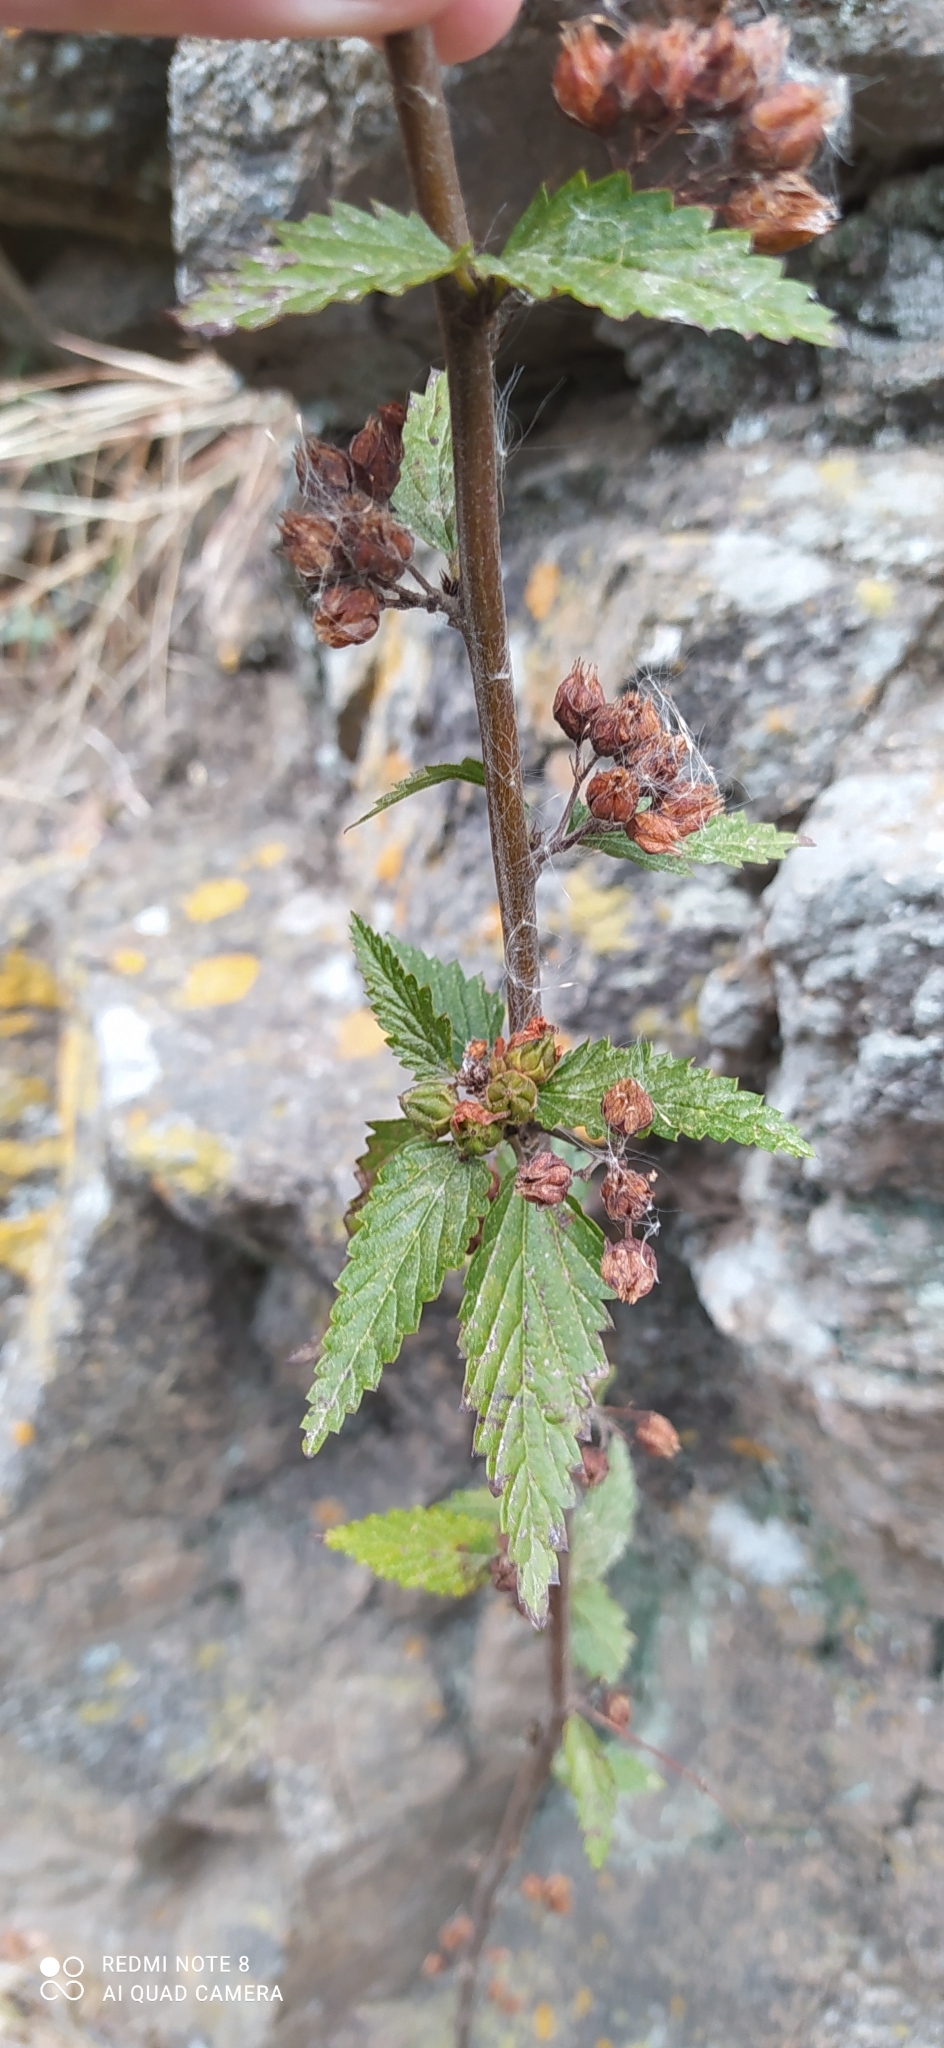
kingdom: Plantae
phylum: Tracheophyta
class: Magnoliopsida
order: Malvales
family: Malvaceae
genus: Melochia
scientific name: Melochia argentina
